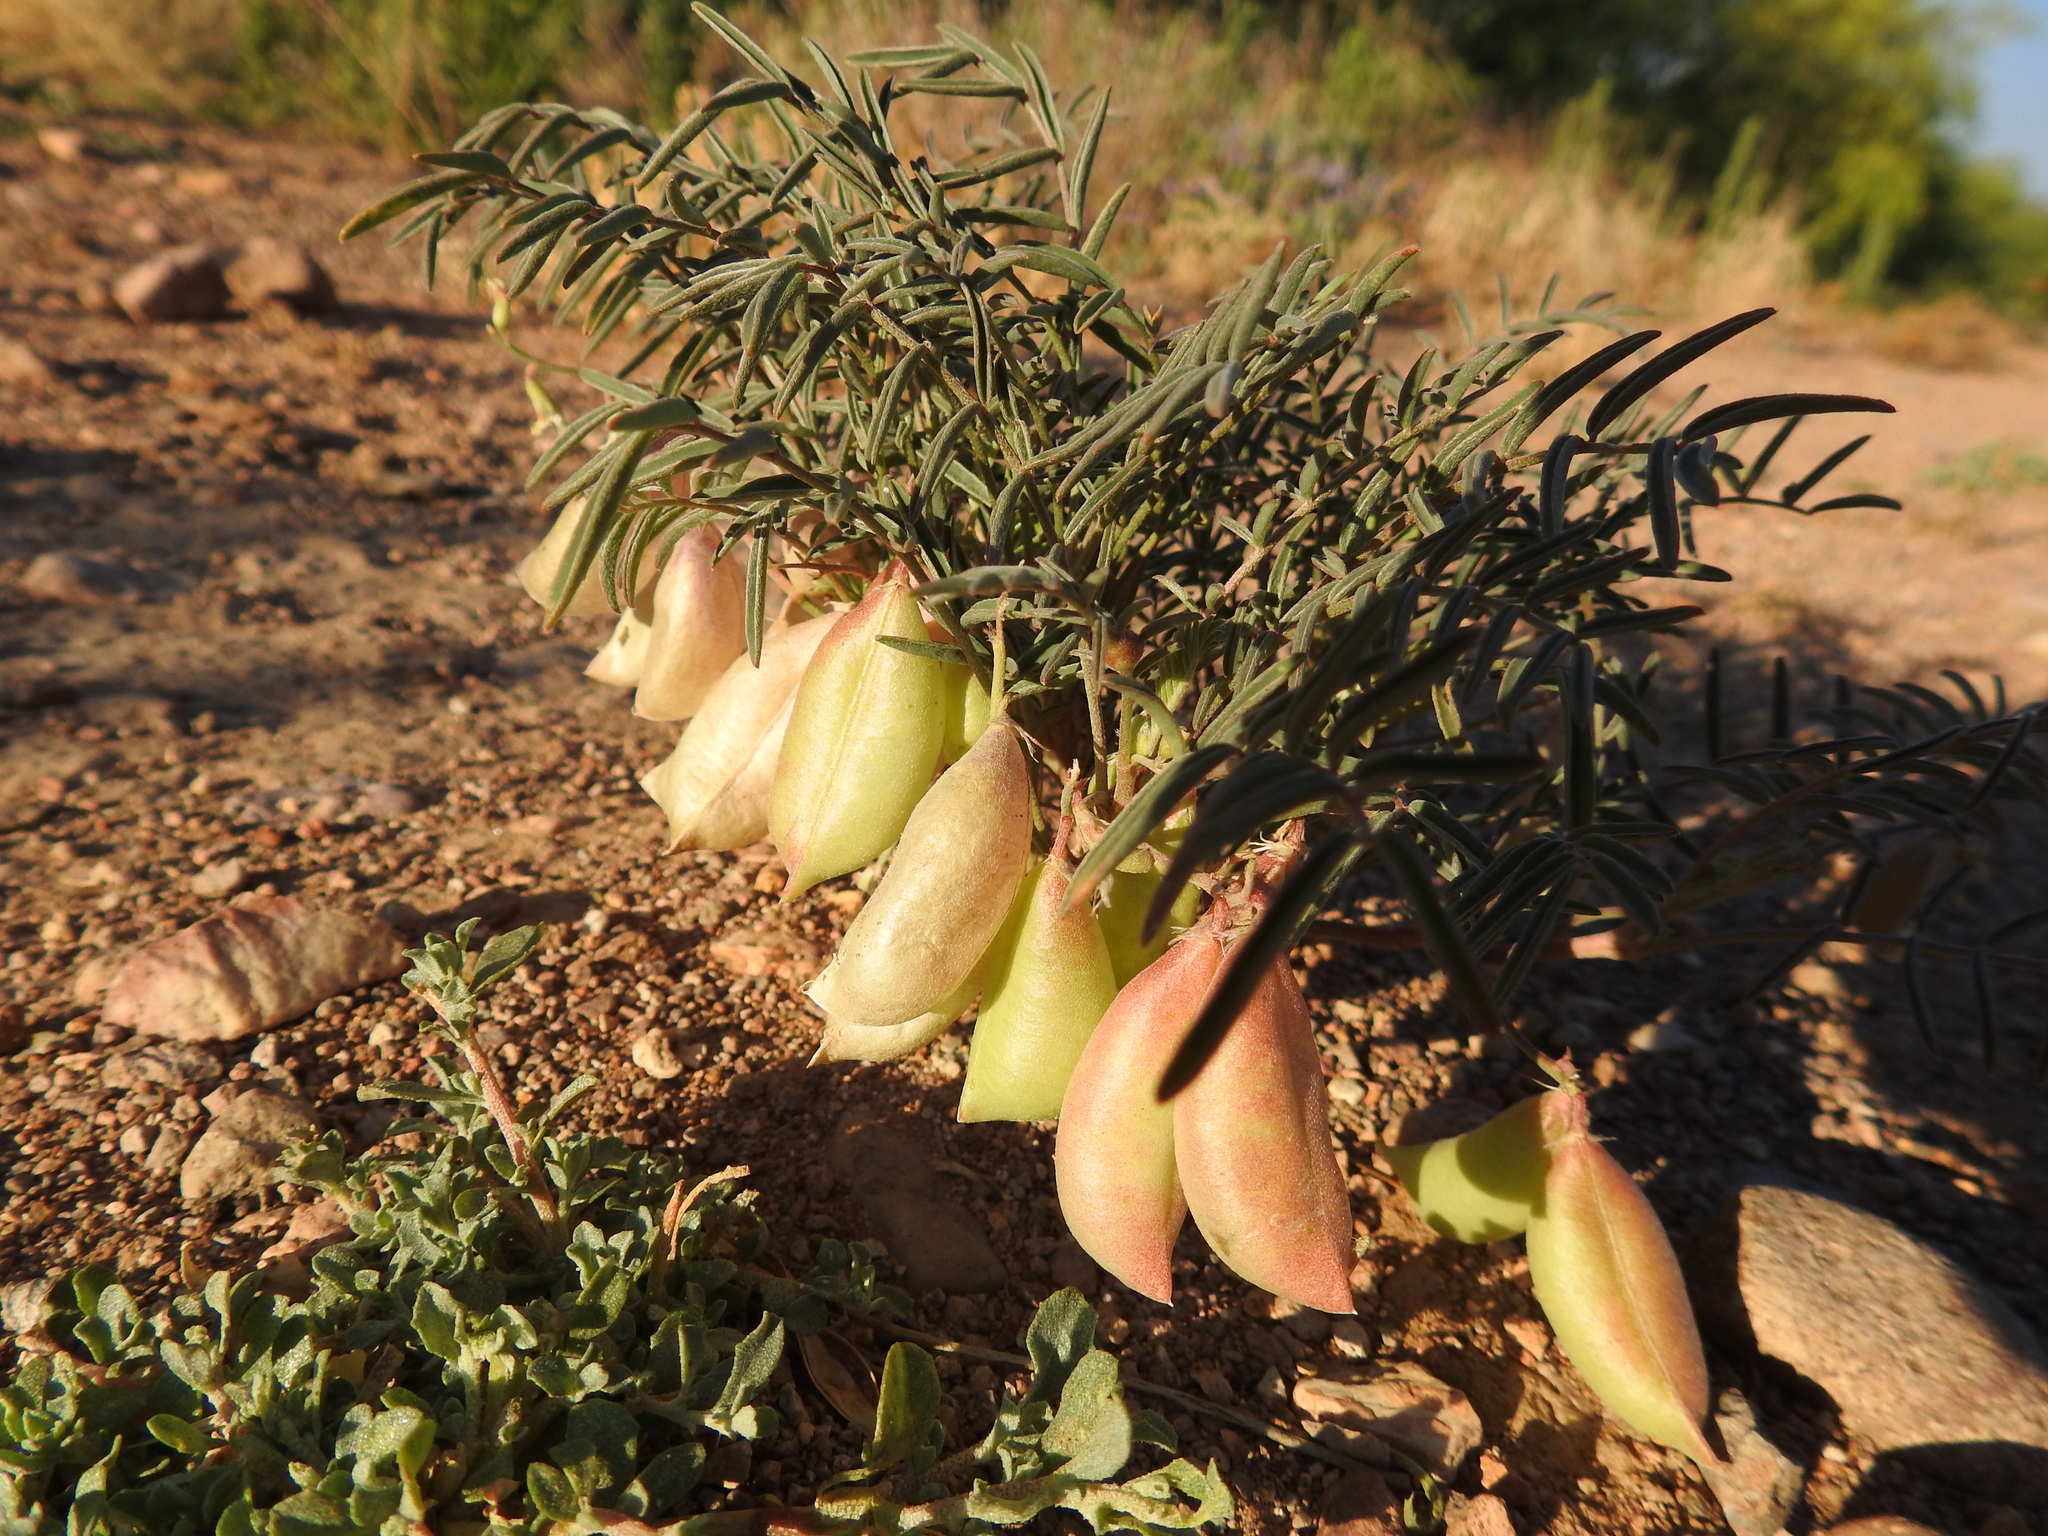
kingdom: Plantae
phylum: Tracheophyta
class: Magnoliopsida
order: Fabales
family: Fabaceae
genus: Astragalus
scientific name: Astragalus allochrous
